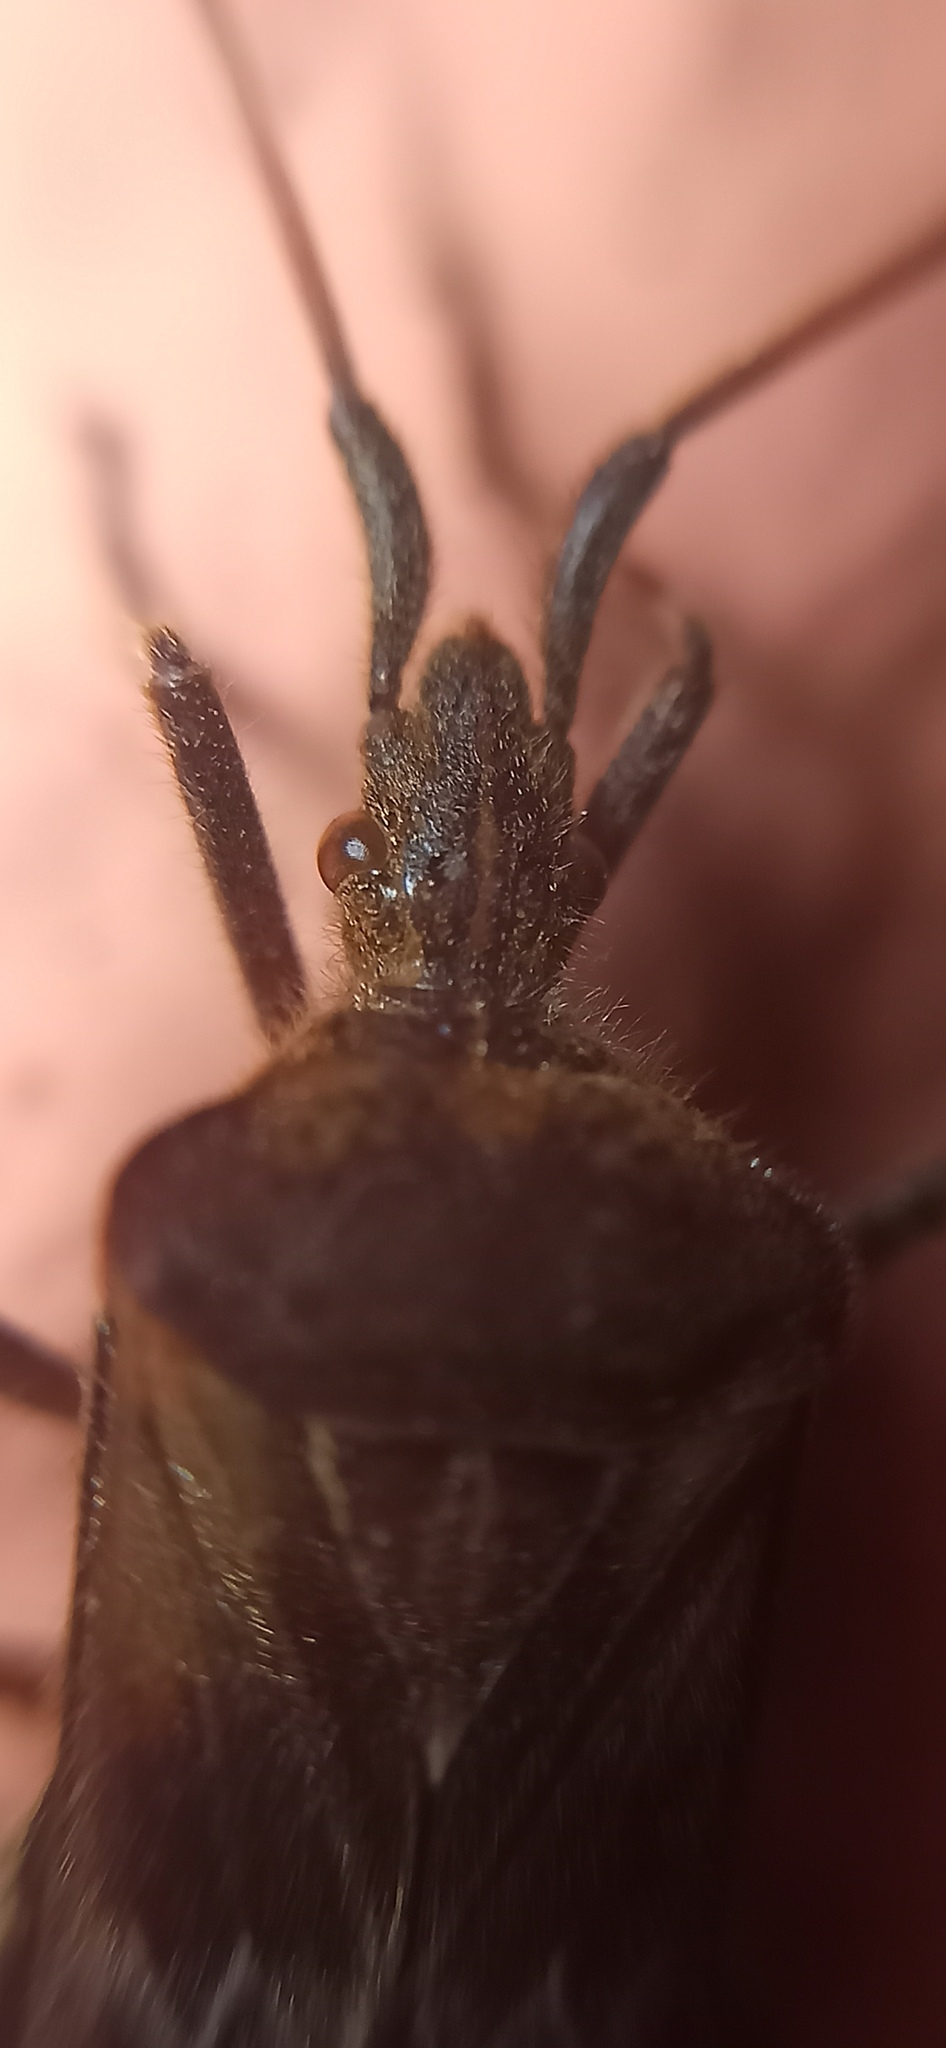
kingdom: Animalia
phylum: Arthropoda
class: Insecta
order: Hemiptera
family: Coreidae
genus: Leptoglossus
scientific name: Leptoglossus occidentalis
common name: Western conifer-seed bug
